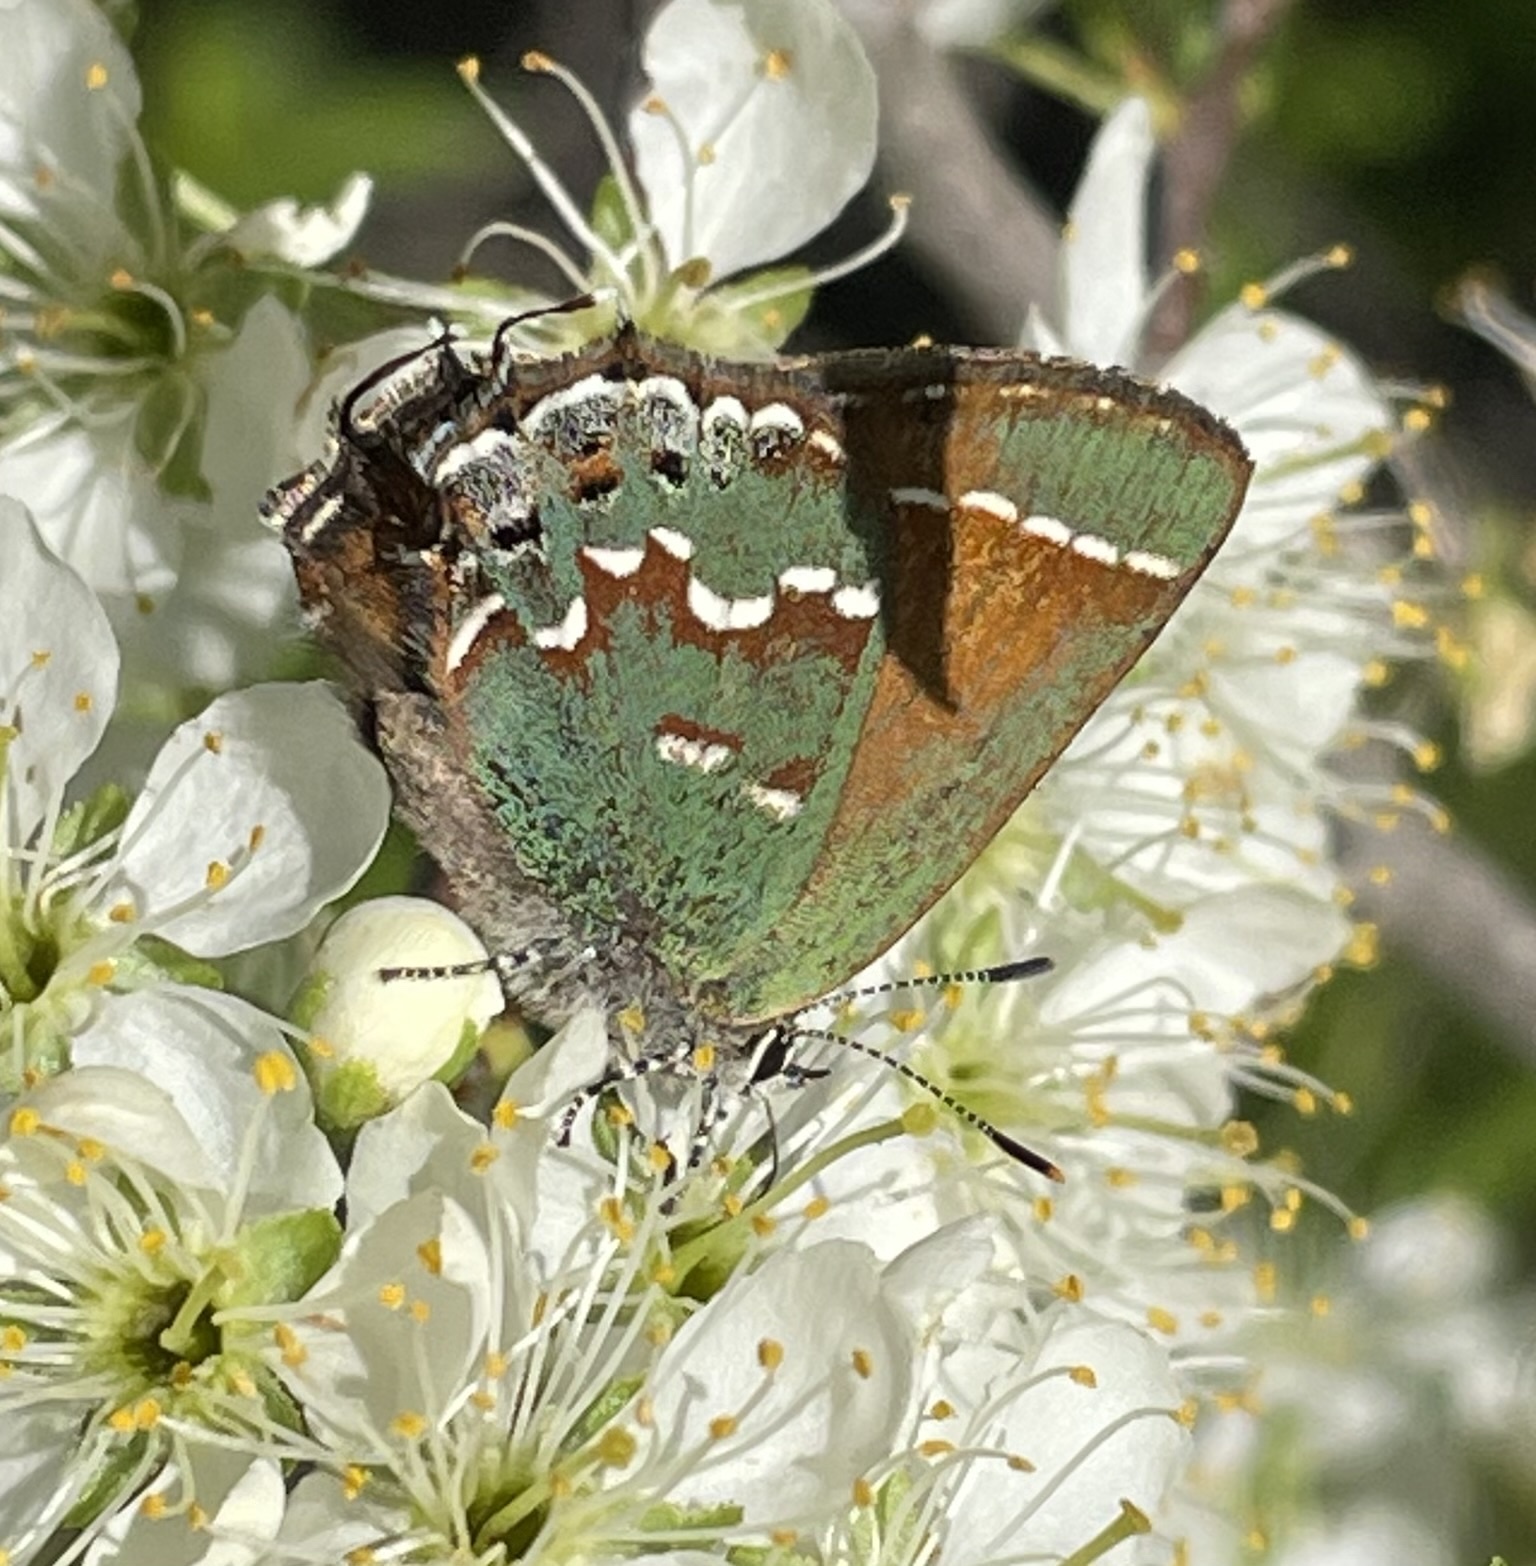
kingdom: Animalia
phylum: Arthropoda
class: Insecta
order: Lepidoptera
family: Lycaenidae
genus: Mitoura
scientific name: Mitoura gryneus
